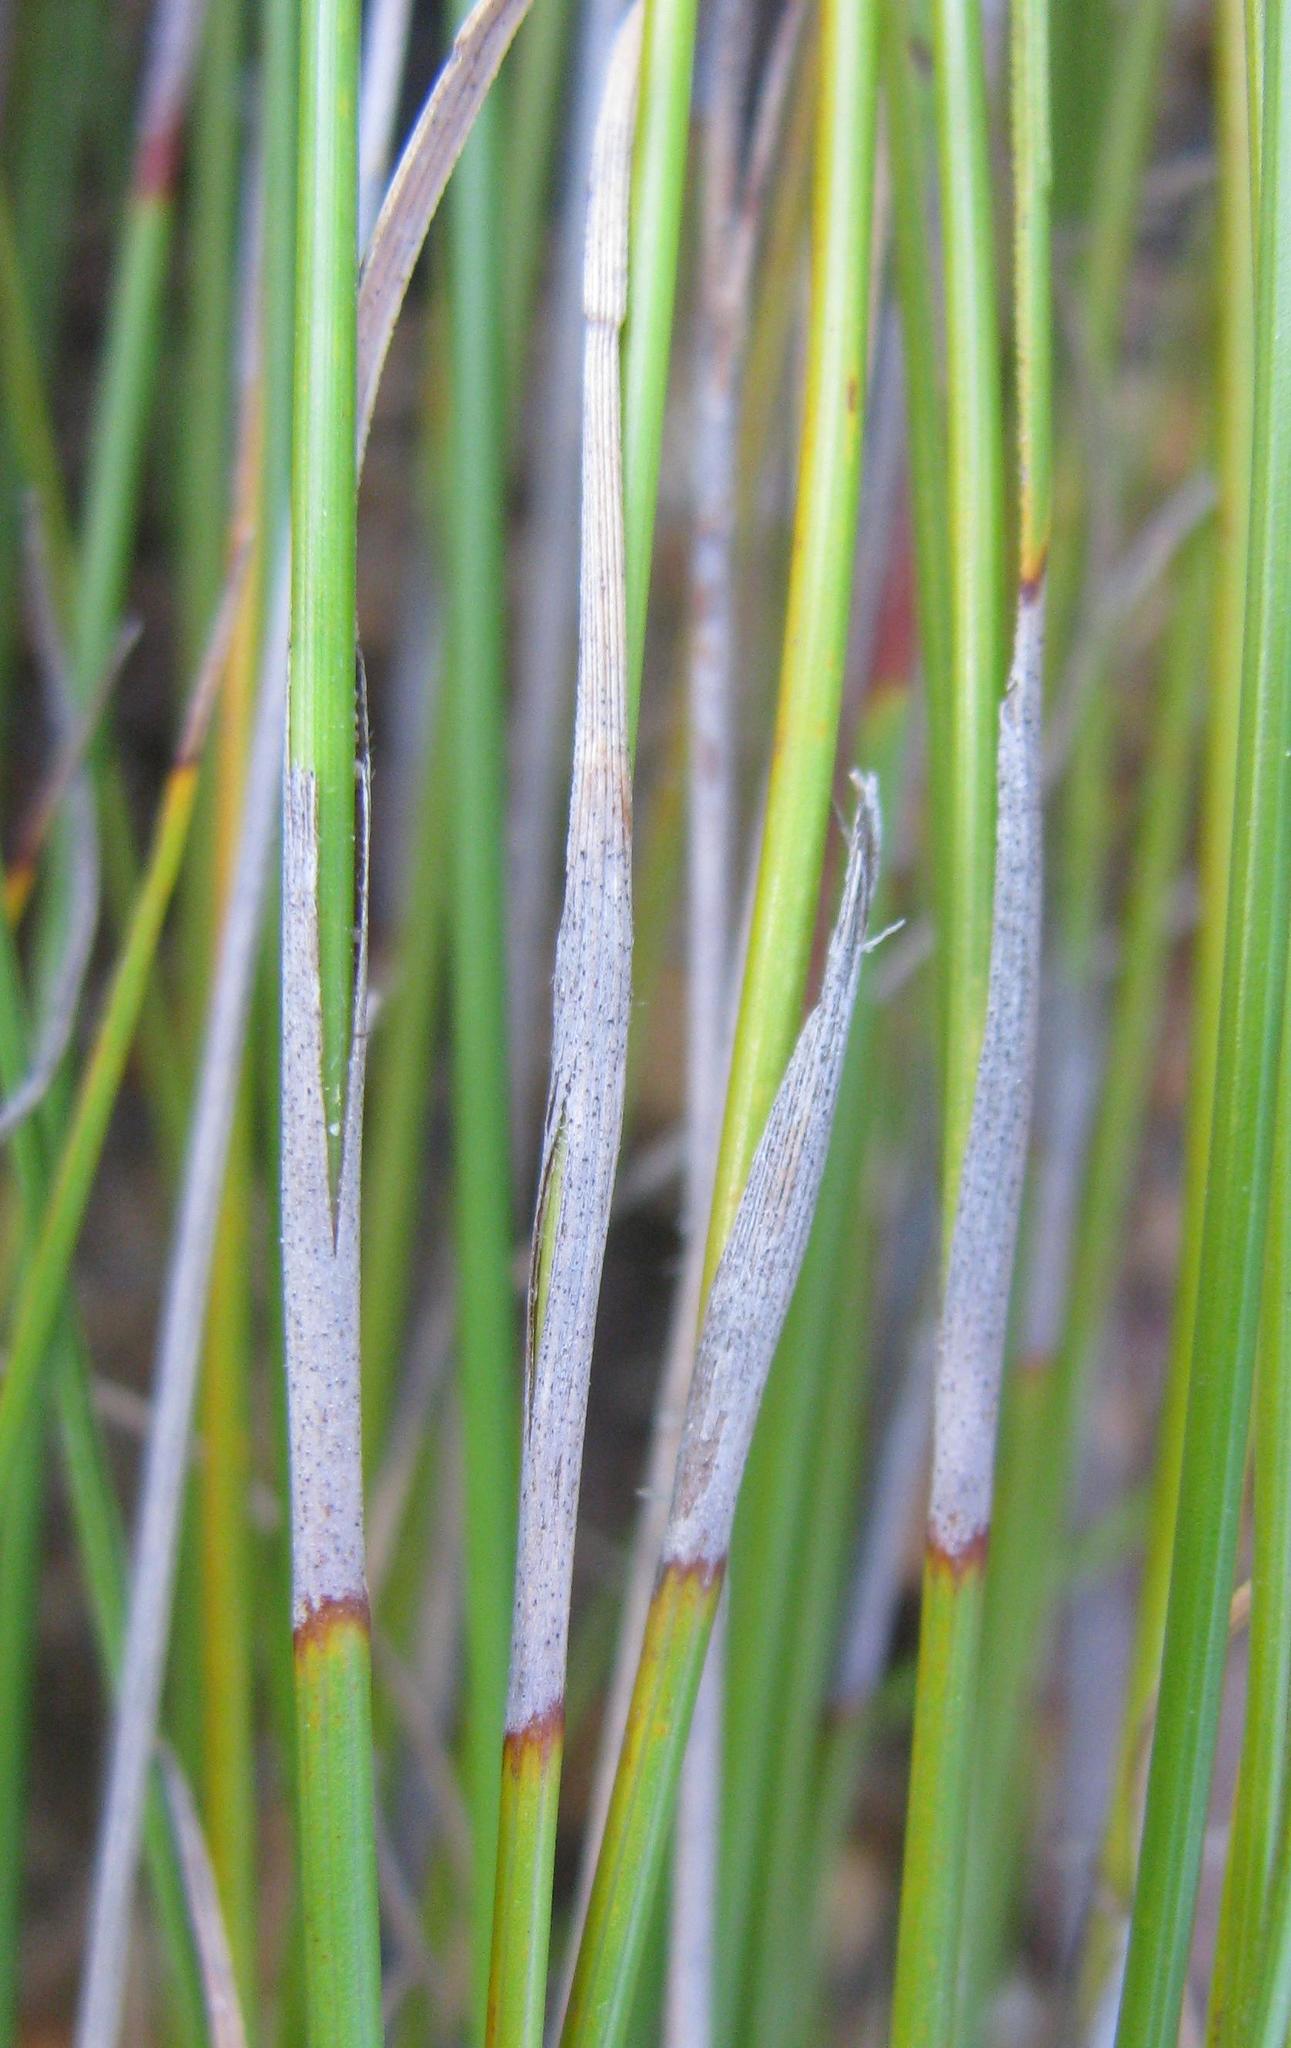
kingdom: Plantae
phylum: Tracheophyta
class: Liliopsida
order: Poales
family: Cyperaceae
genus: Tetraria
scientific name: Tetraria fimbriolata
